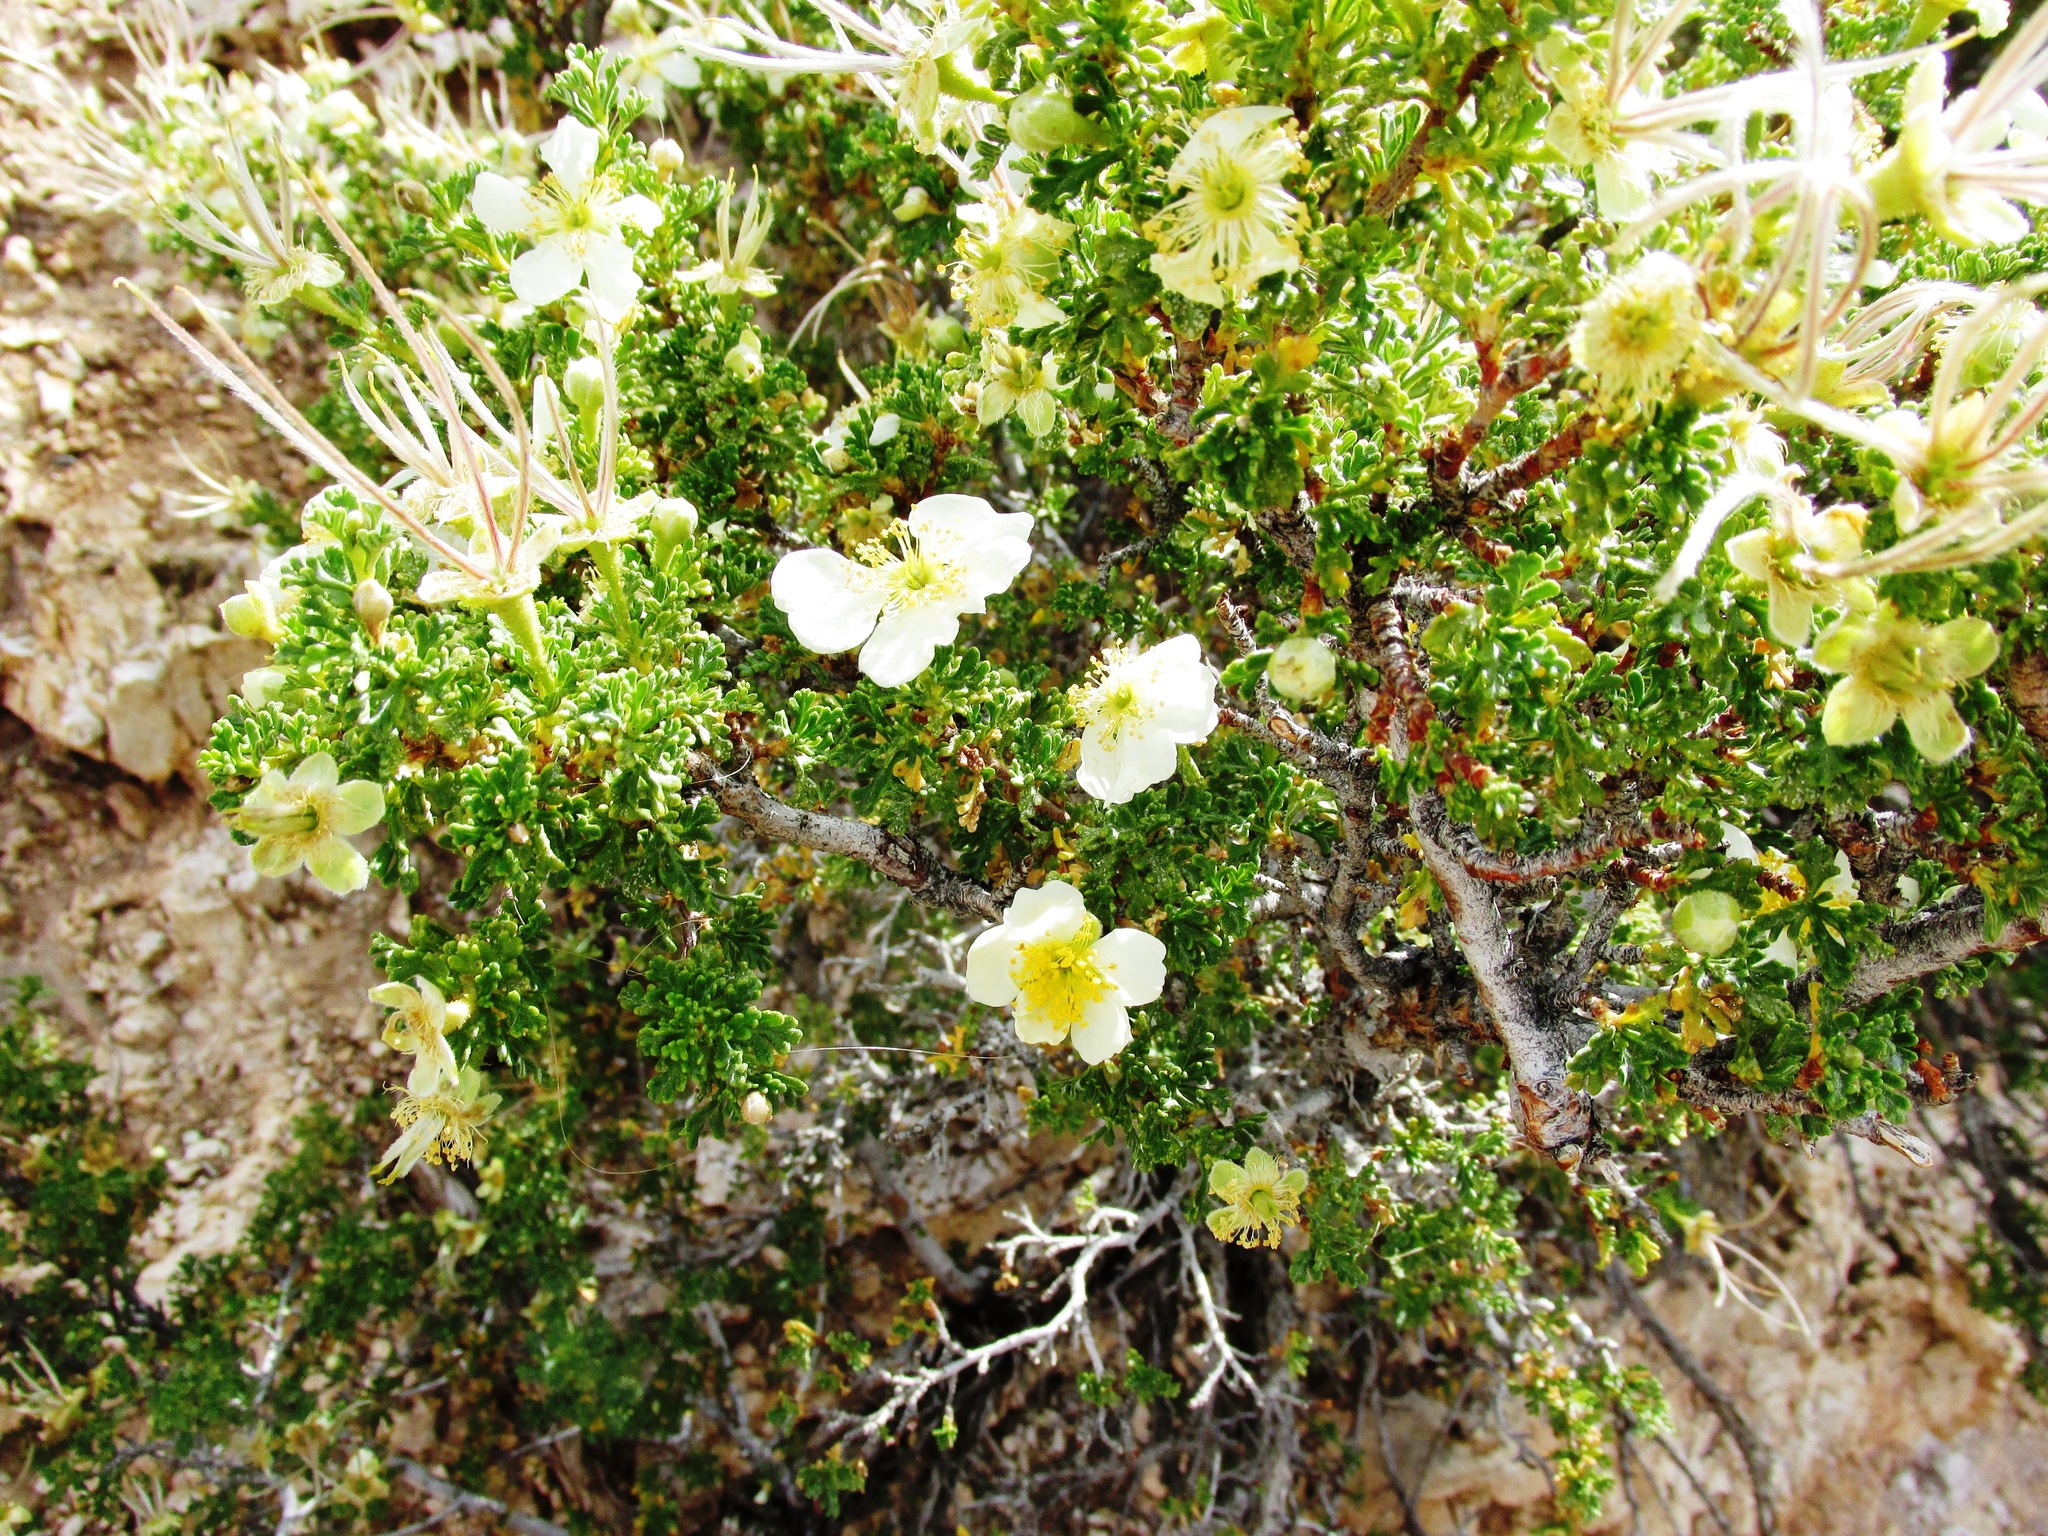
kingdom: Plantae
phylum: Tracheophyta
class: Magnoliopsida
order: Rosales
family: Rosaceae
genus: Purshia
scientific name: Purshia stansburiana
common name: Stansbury's cliffrose
